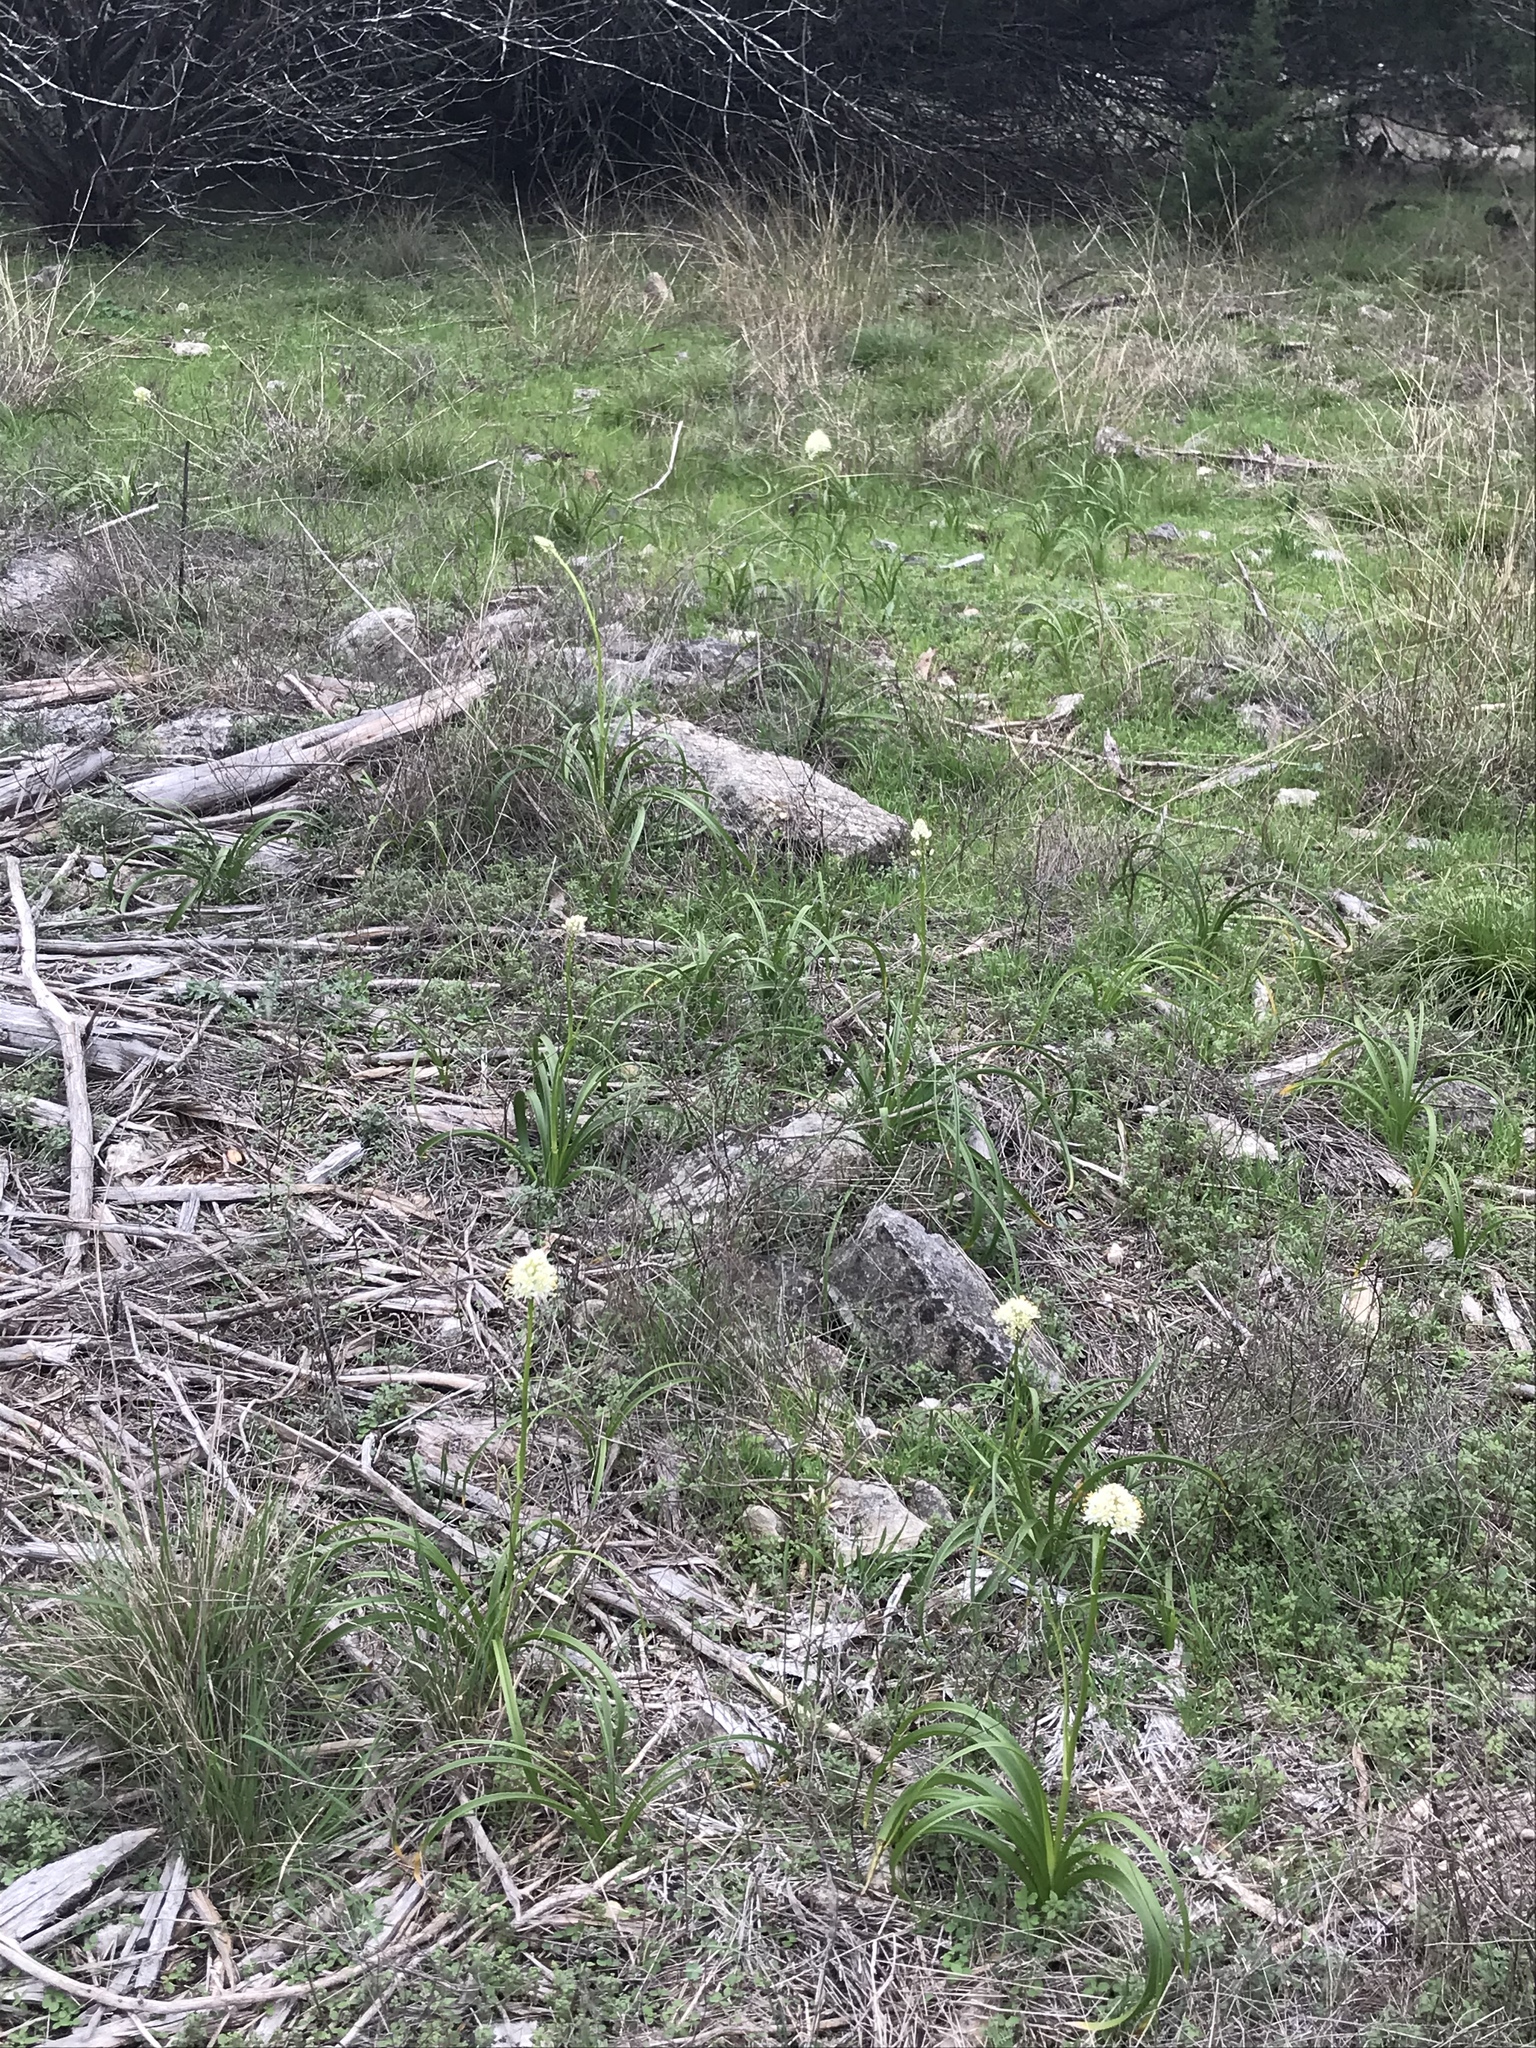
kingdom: Plantae
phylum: Tracheophyta
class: Liliopsida
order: Liliales
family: Melanthiaceae
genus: Toxicoscordion
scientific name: Toxicoscordion nuttallii
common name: Poison sego
